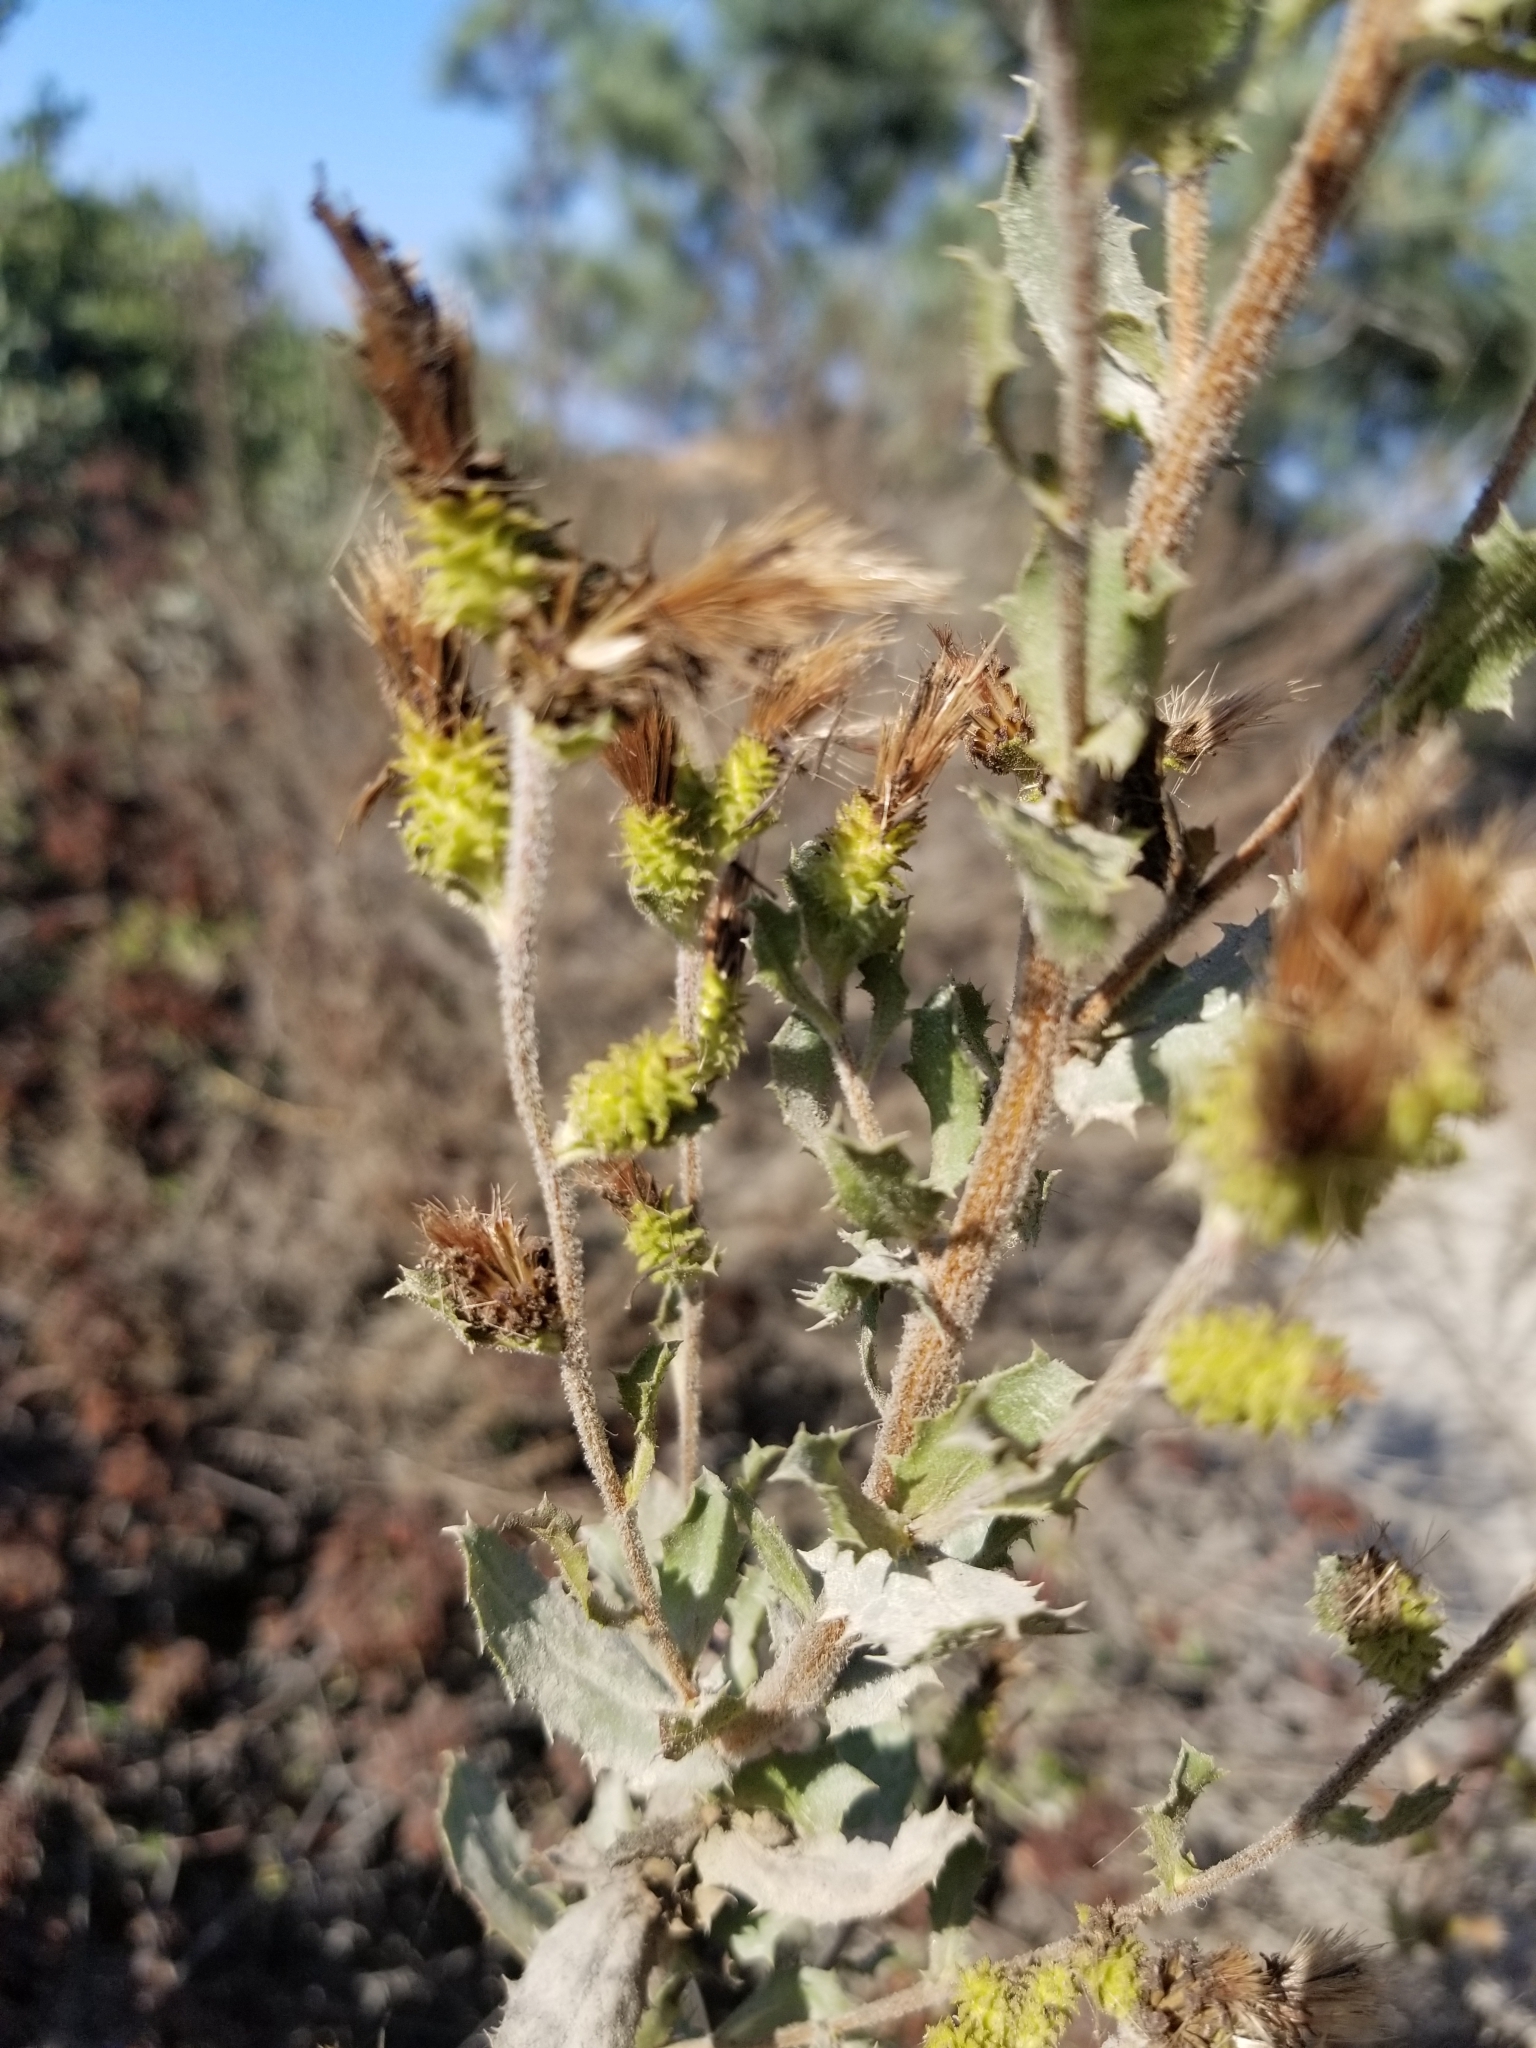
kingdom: Plantae
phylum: Tracheophyta
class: Magnoliopsida
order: Asterales
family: Asteraceae
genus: Hazardia
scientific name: Hazardia squarrosa
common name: Saw-tooth goldenbush
